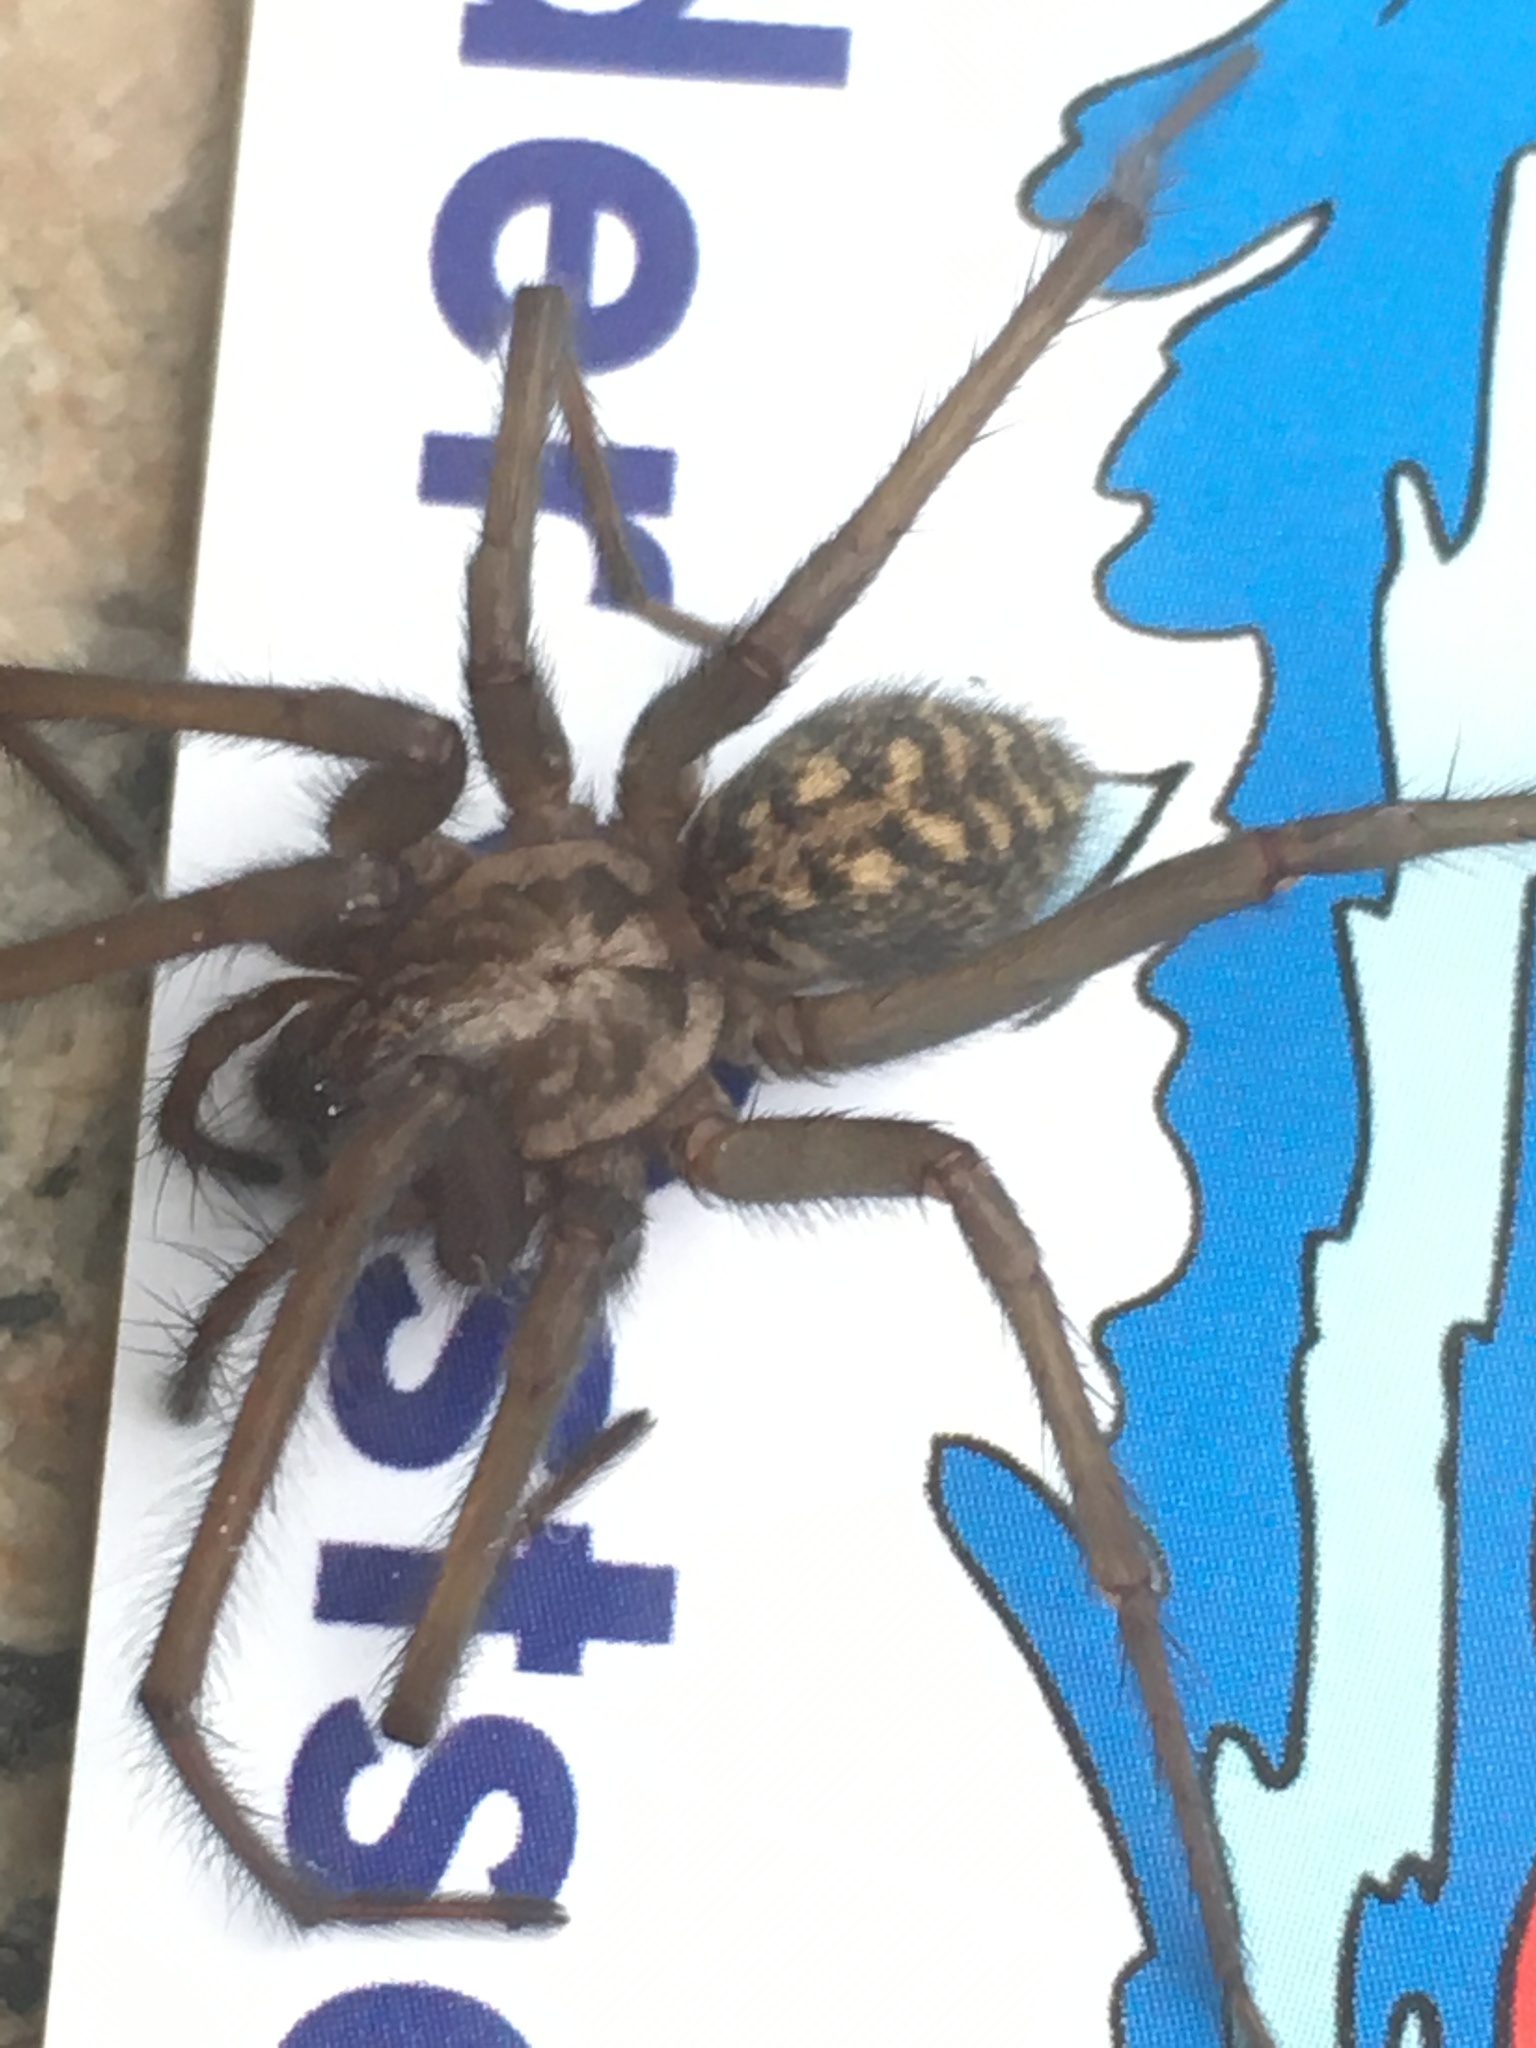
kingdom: Animalia
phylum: Arthropoda
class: Arachnida
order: Araneae
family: Agelenidae
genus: Eratigena
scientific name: Eratigena atrica
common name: Giant house spider
